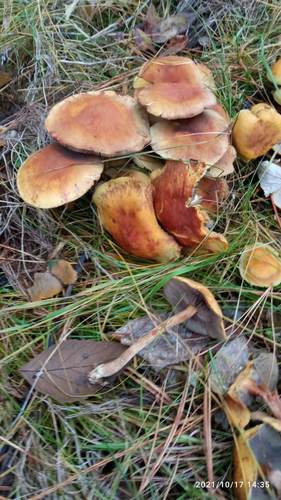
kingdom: Fungi
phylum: Basidiomycota
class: Agaricomycetes
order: Agaricales
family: Strophariaceae
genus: Hypholoma
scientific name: Hypholoma capnoides
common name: Conifer tuft
